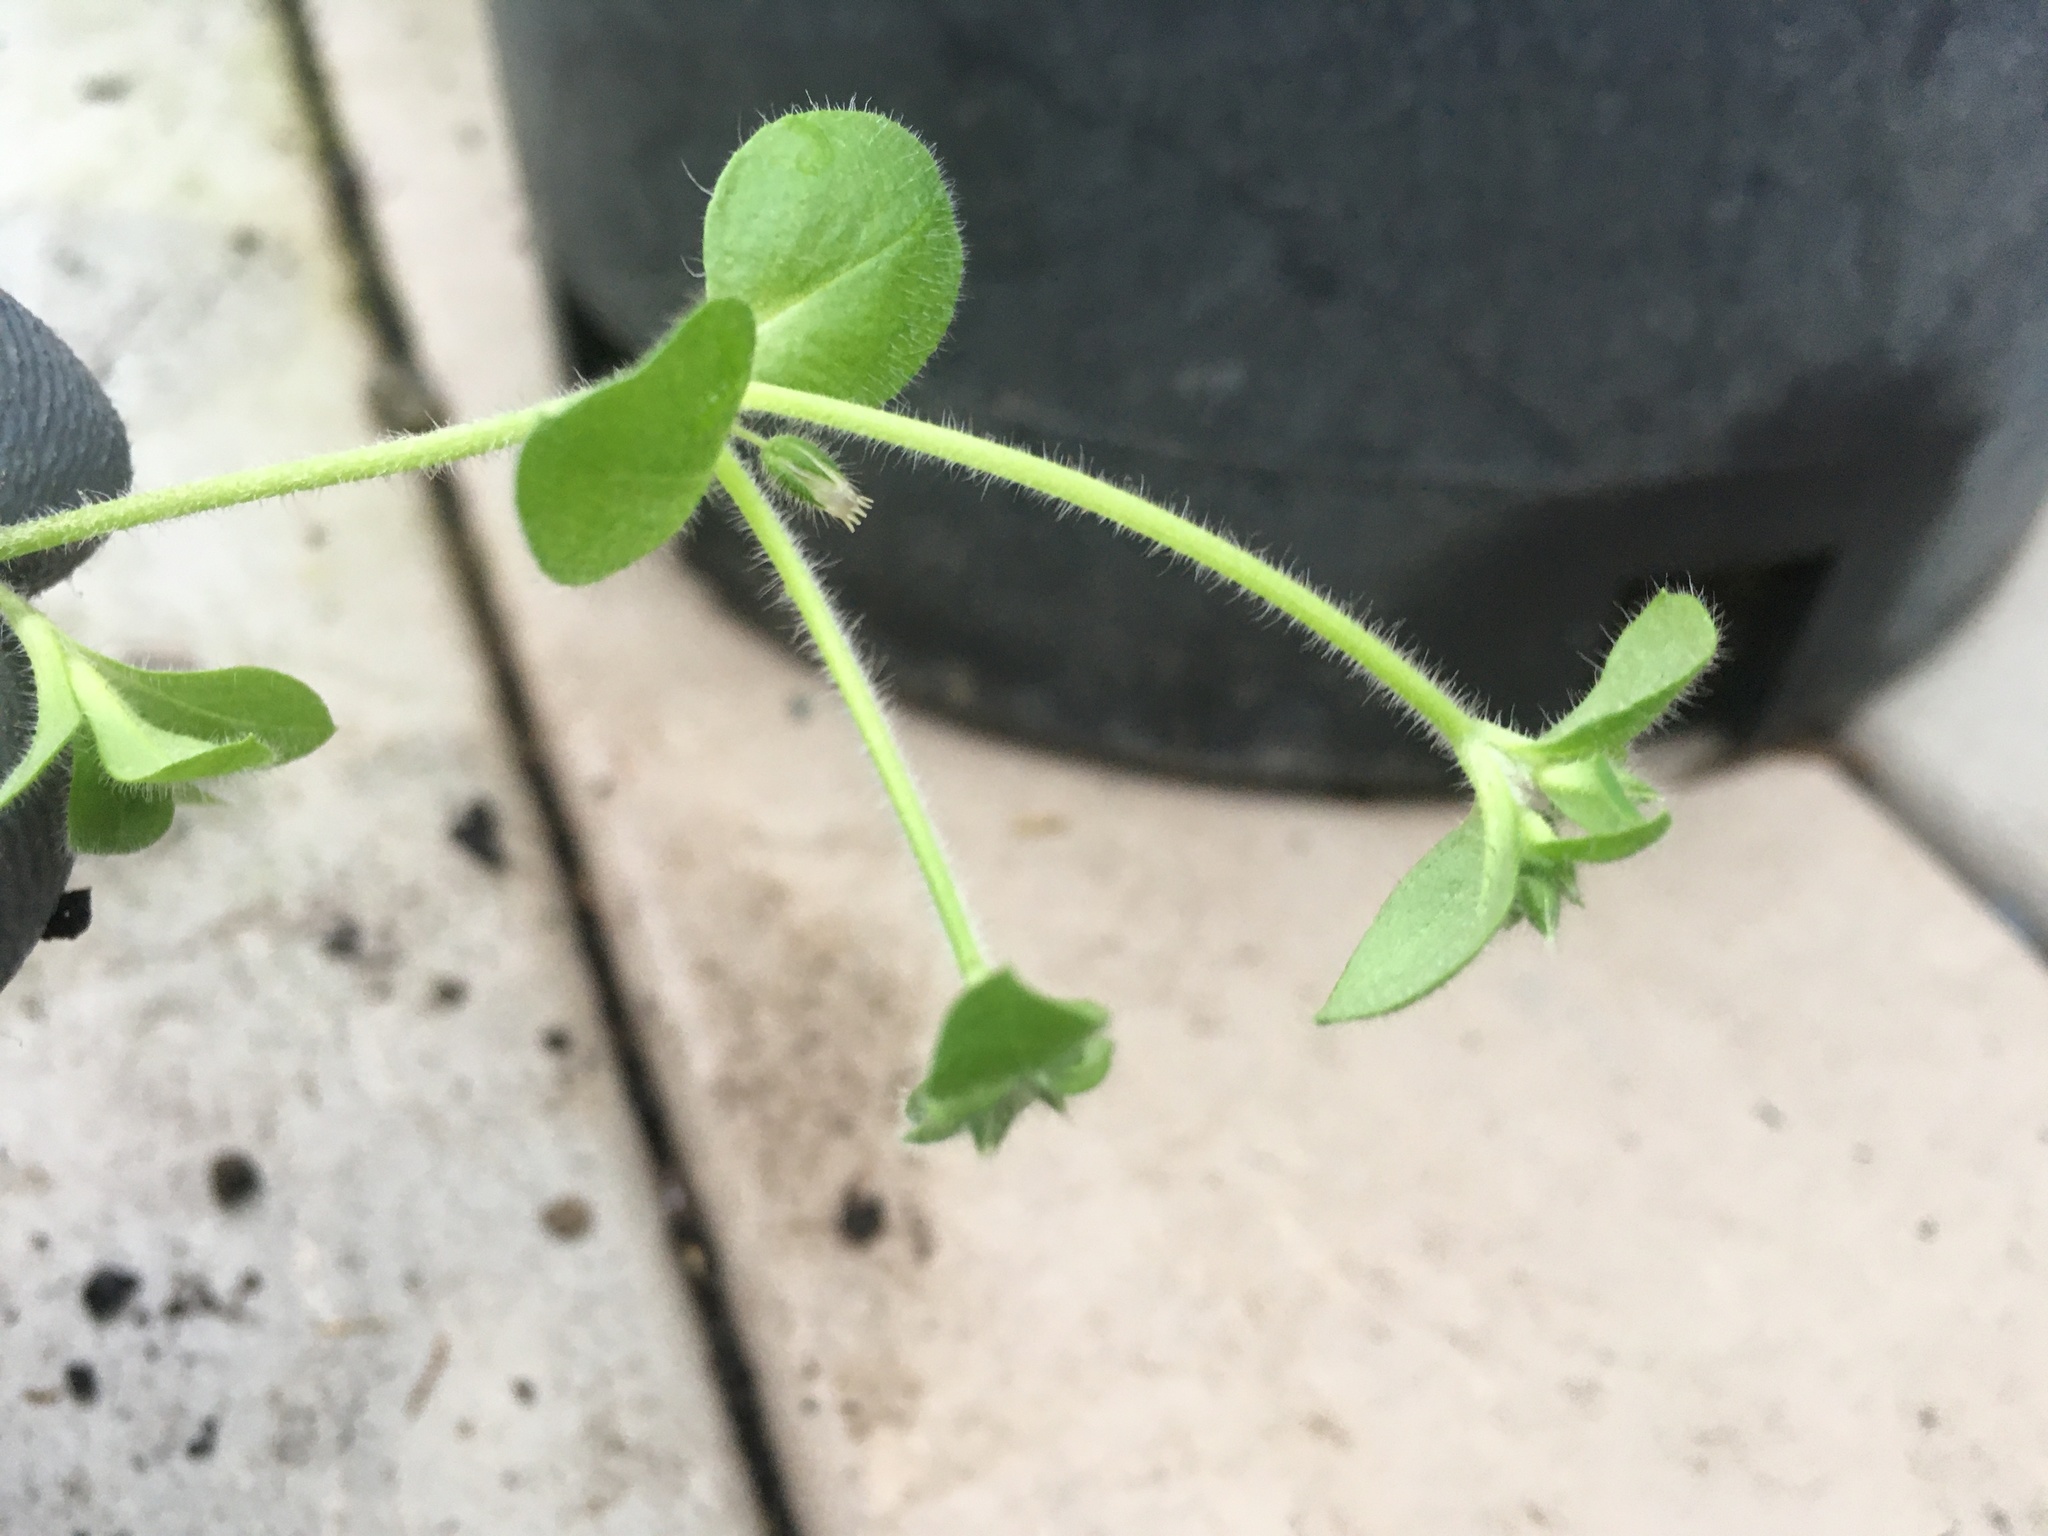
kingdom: Plantae
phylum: Tracheophyta
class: Magnoliopsida
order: Caryophyllales
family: Caryophyllaceae
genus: Cerastium
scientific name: Cerastium glomeratum
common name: Sticky chickweed
